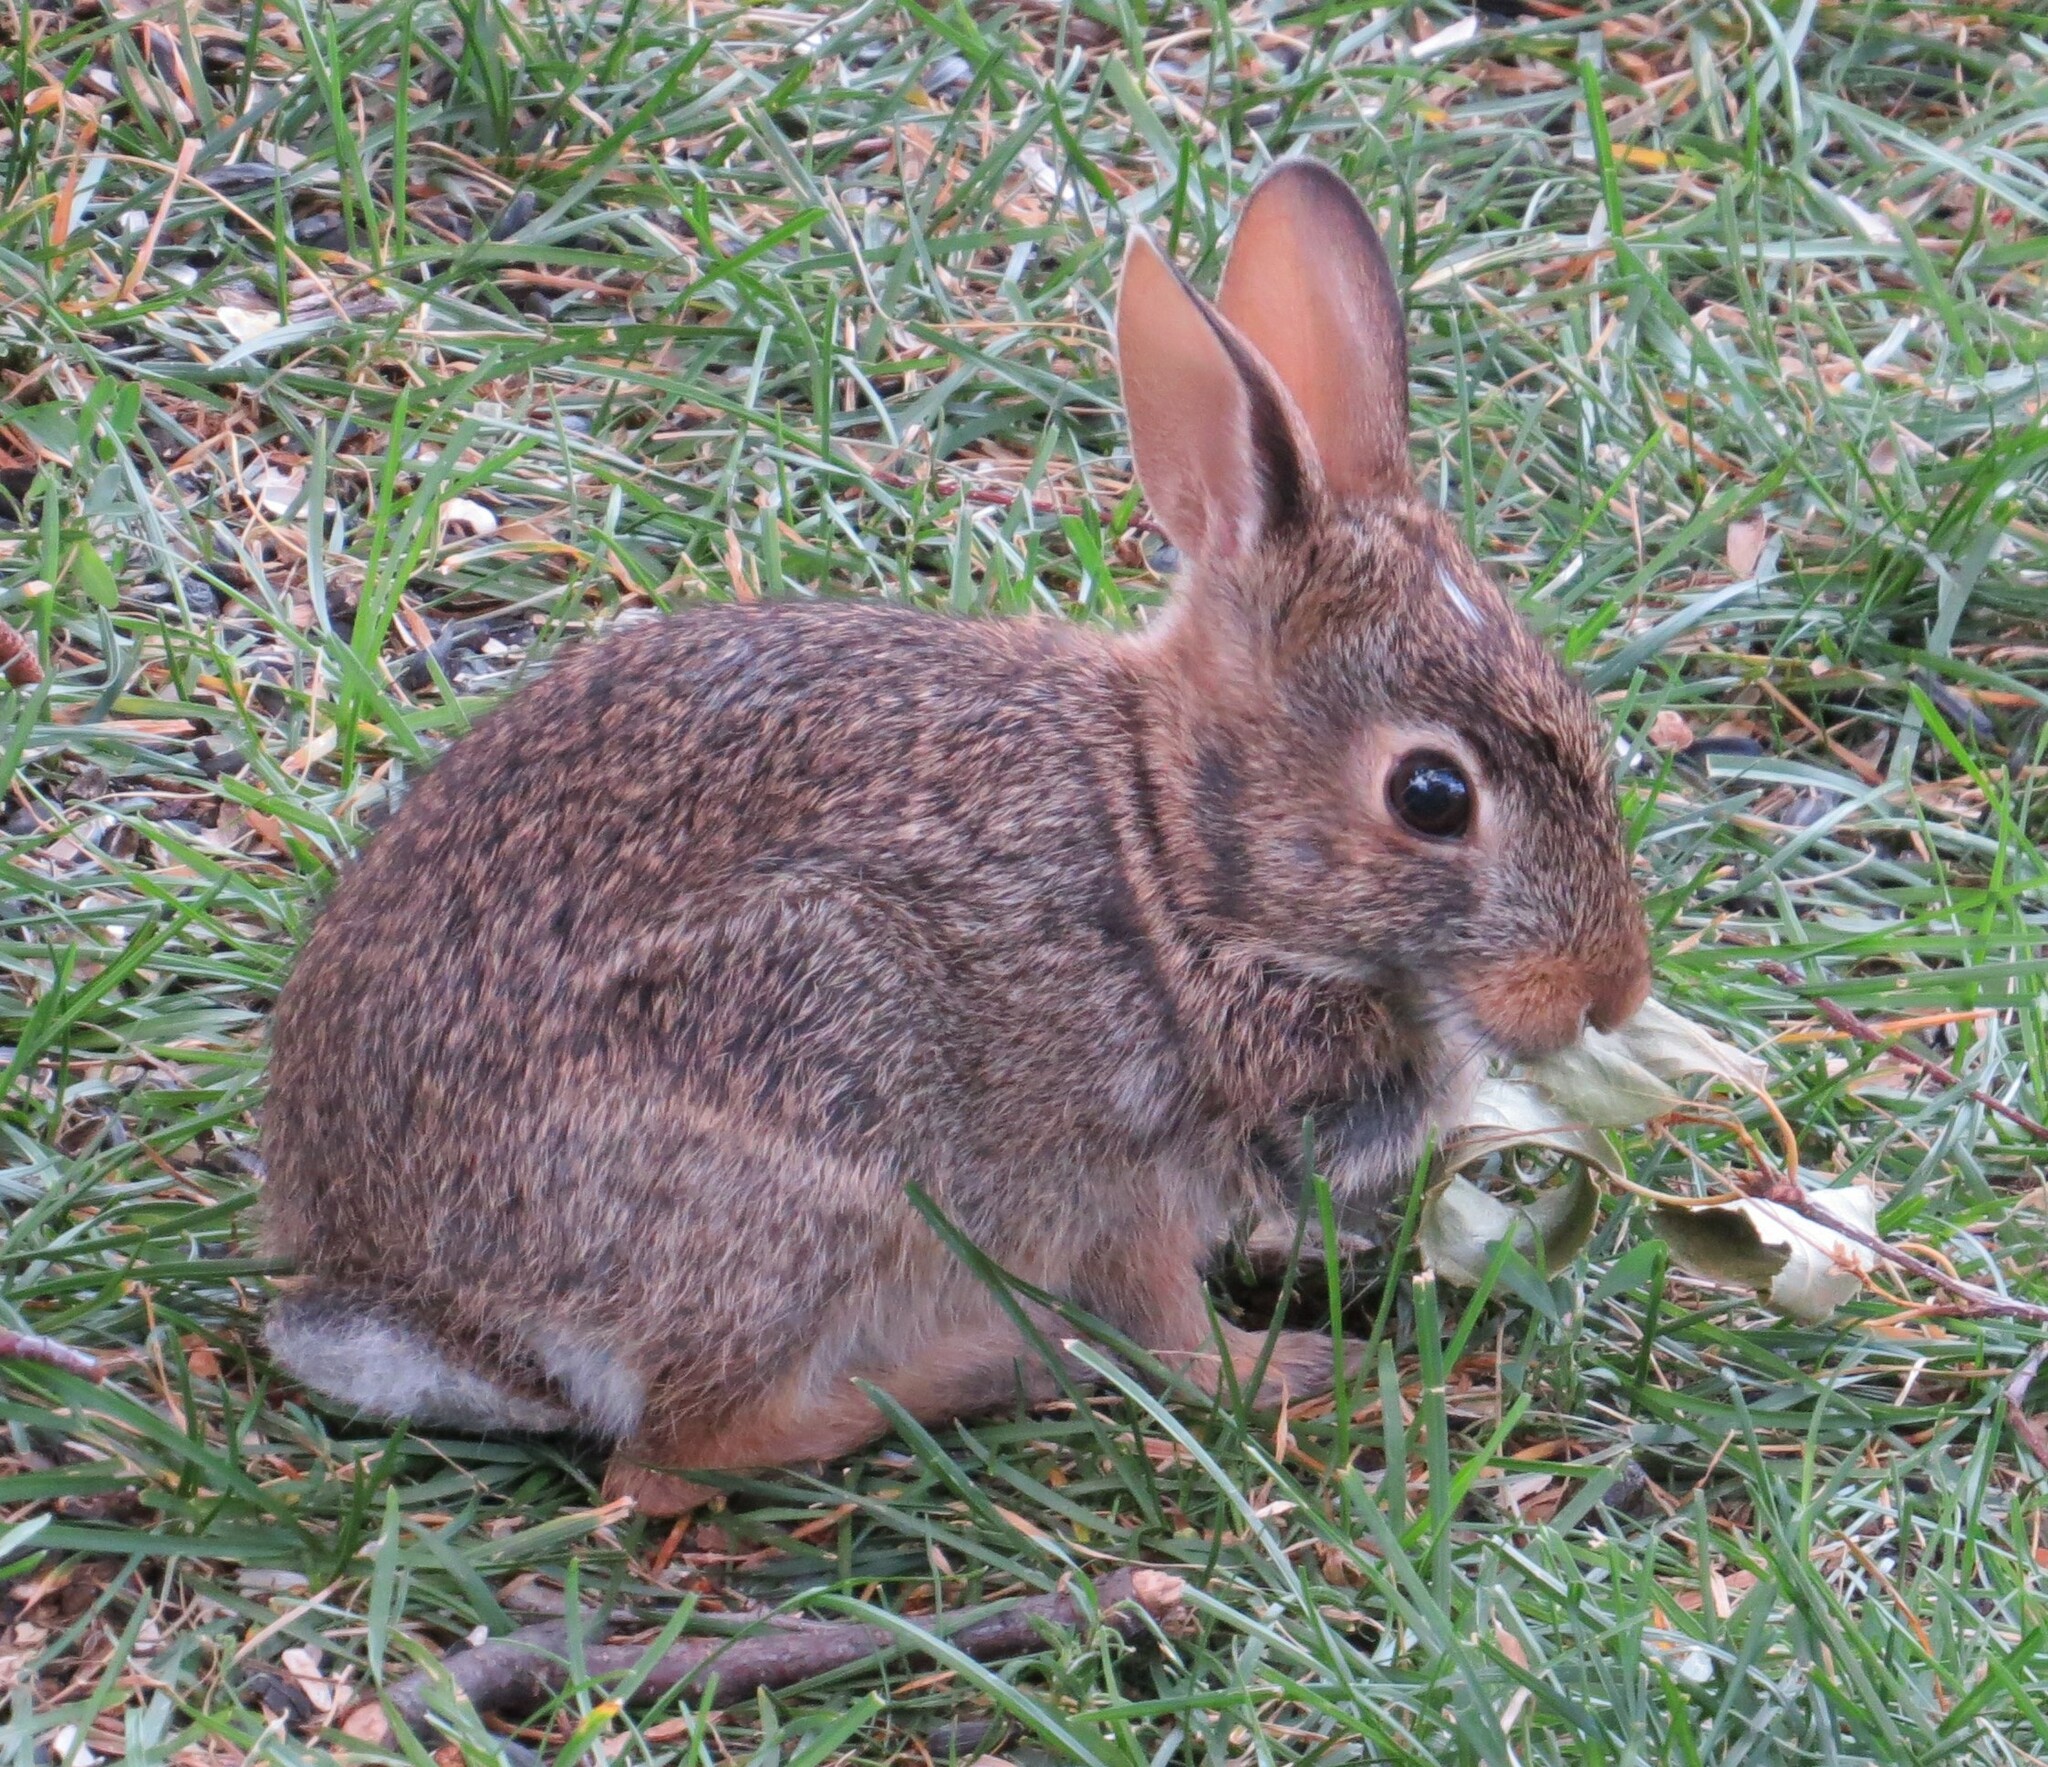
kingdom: Animalia
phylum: Chordata
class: Mammalia
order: Lagomorpha
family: Leporidae
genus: Sylvilagus
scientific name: Sylvilagus floridanus
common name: Eastern cottontail
